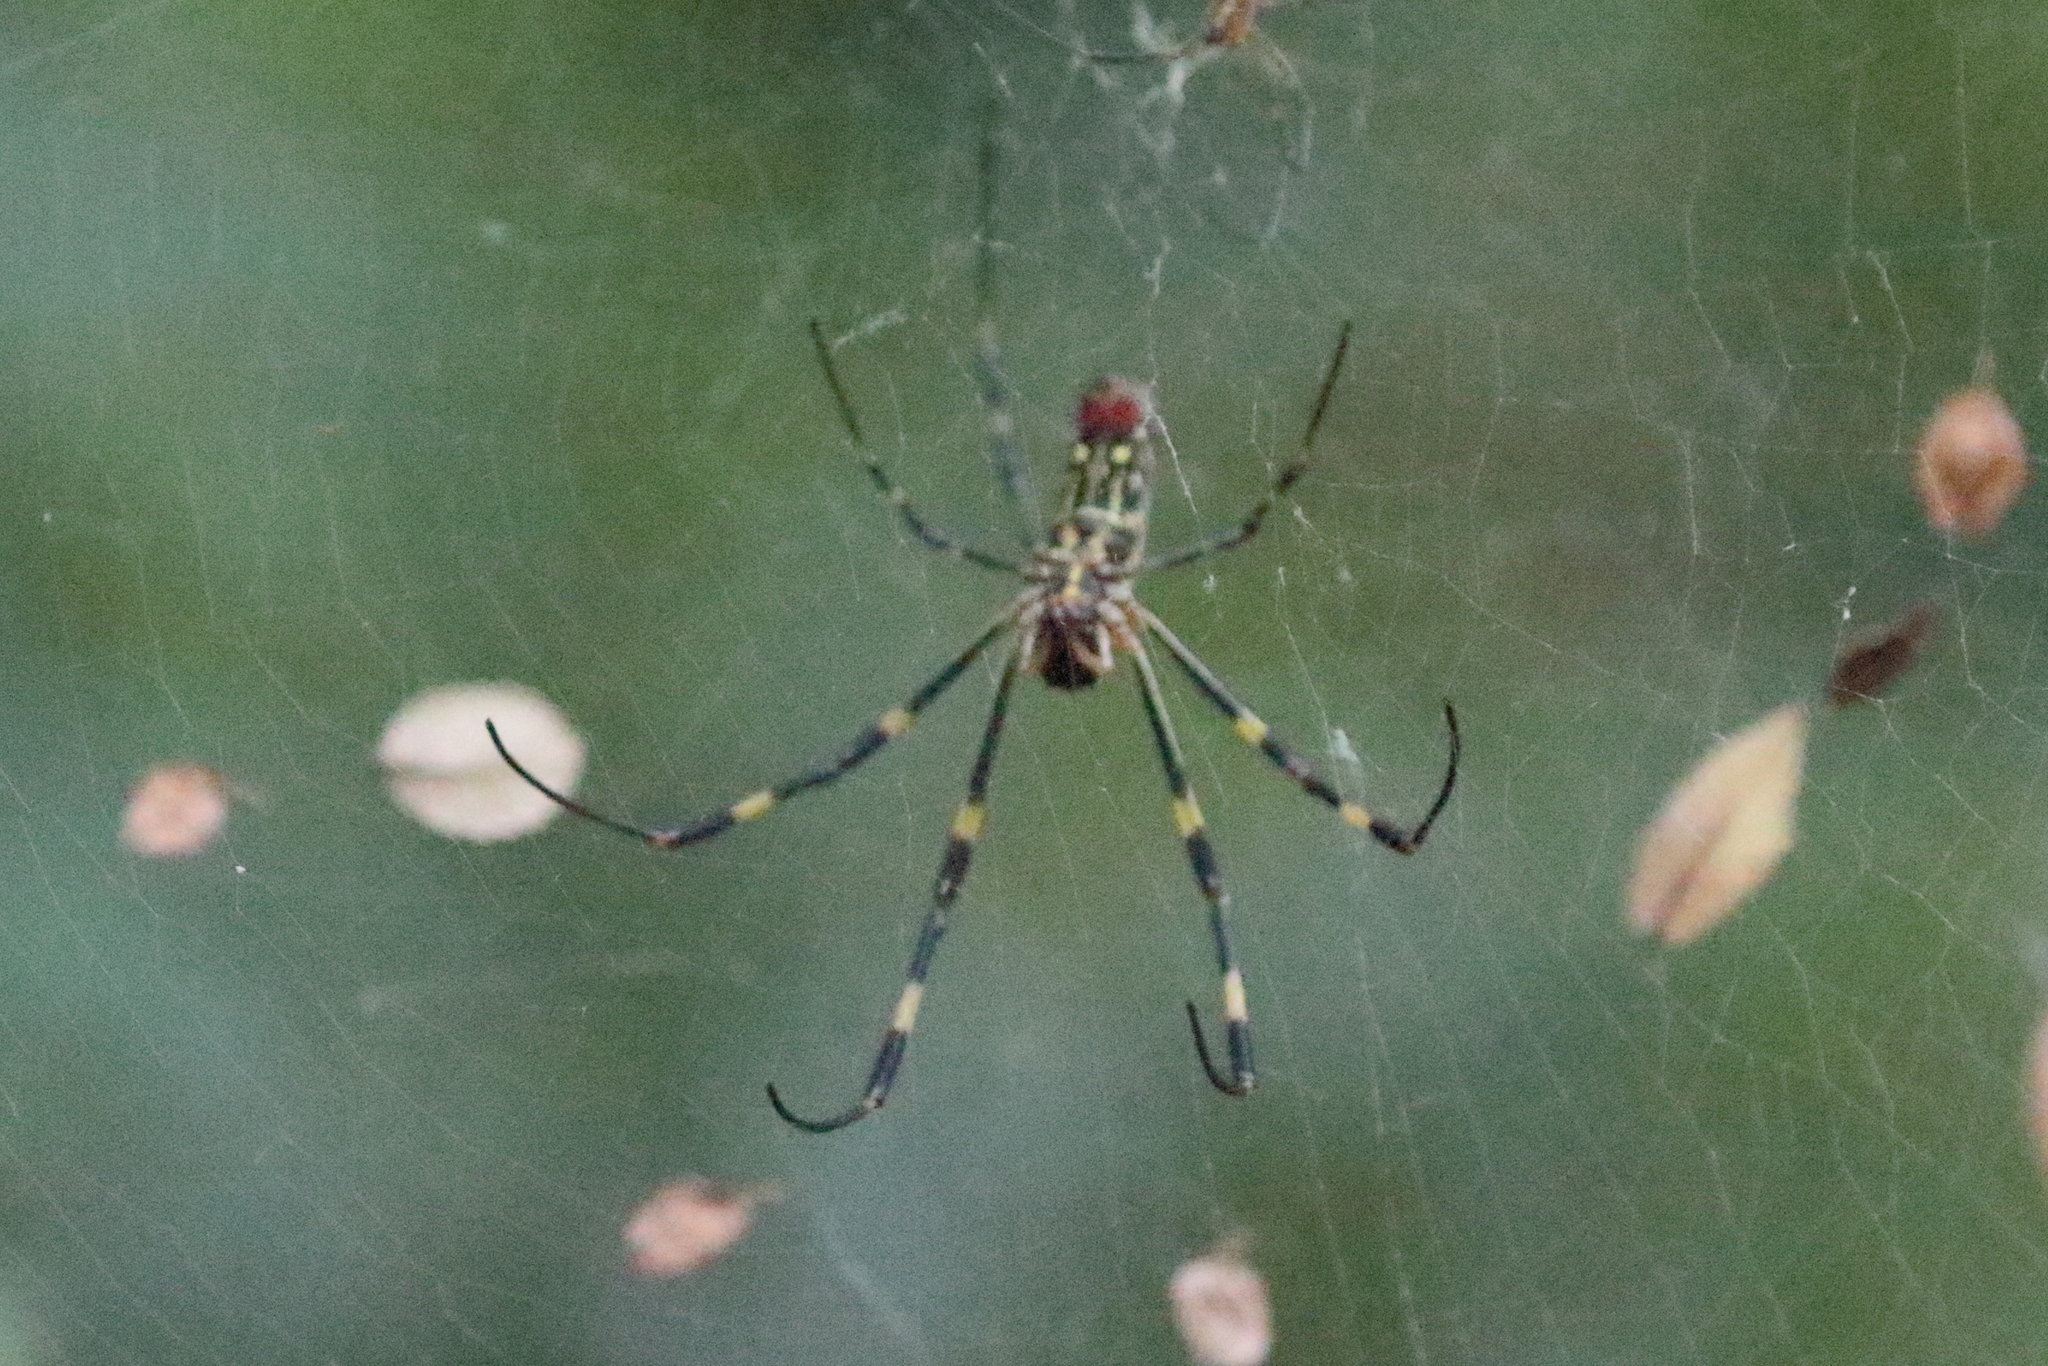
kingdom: Animalia
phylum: Arthropoda
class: Arachnida
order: Araneae
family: Araneidae
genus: Trichonephila
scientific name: Trichonephila clavata
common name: Jorō spider
